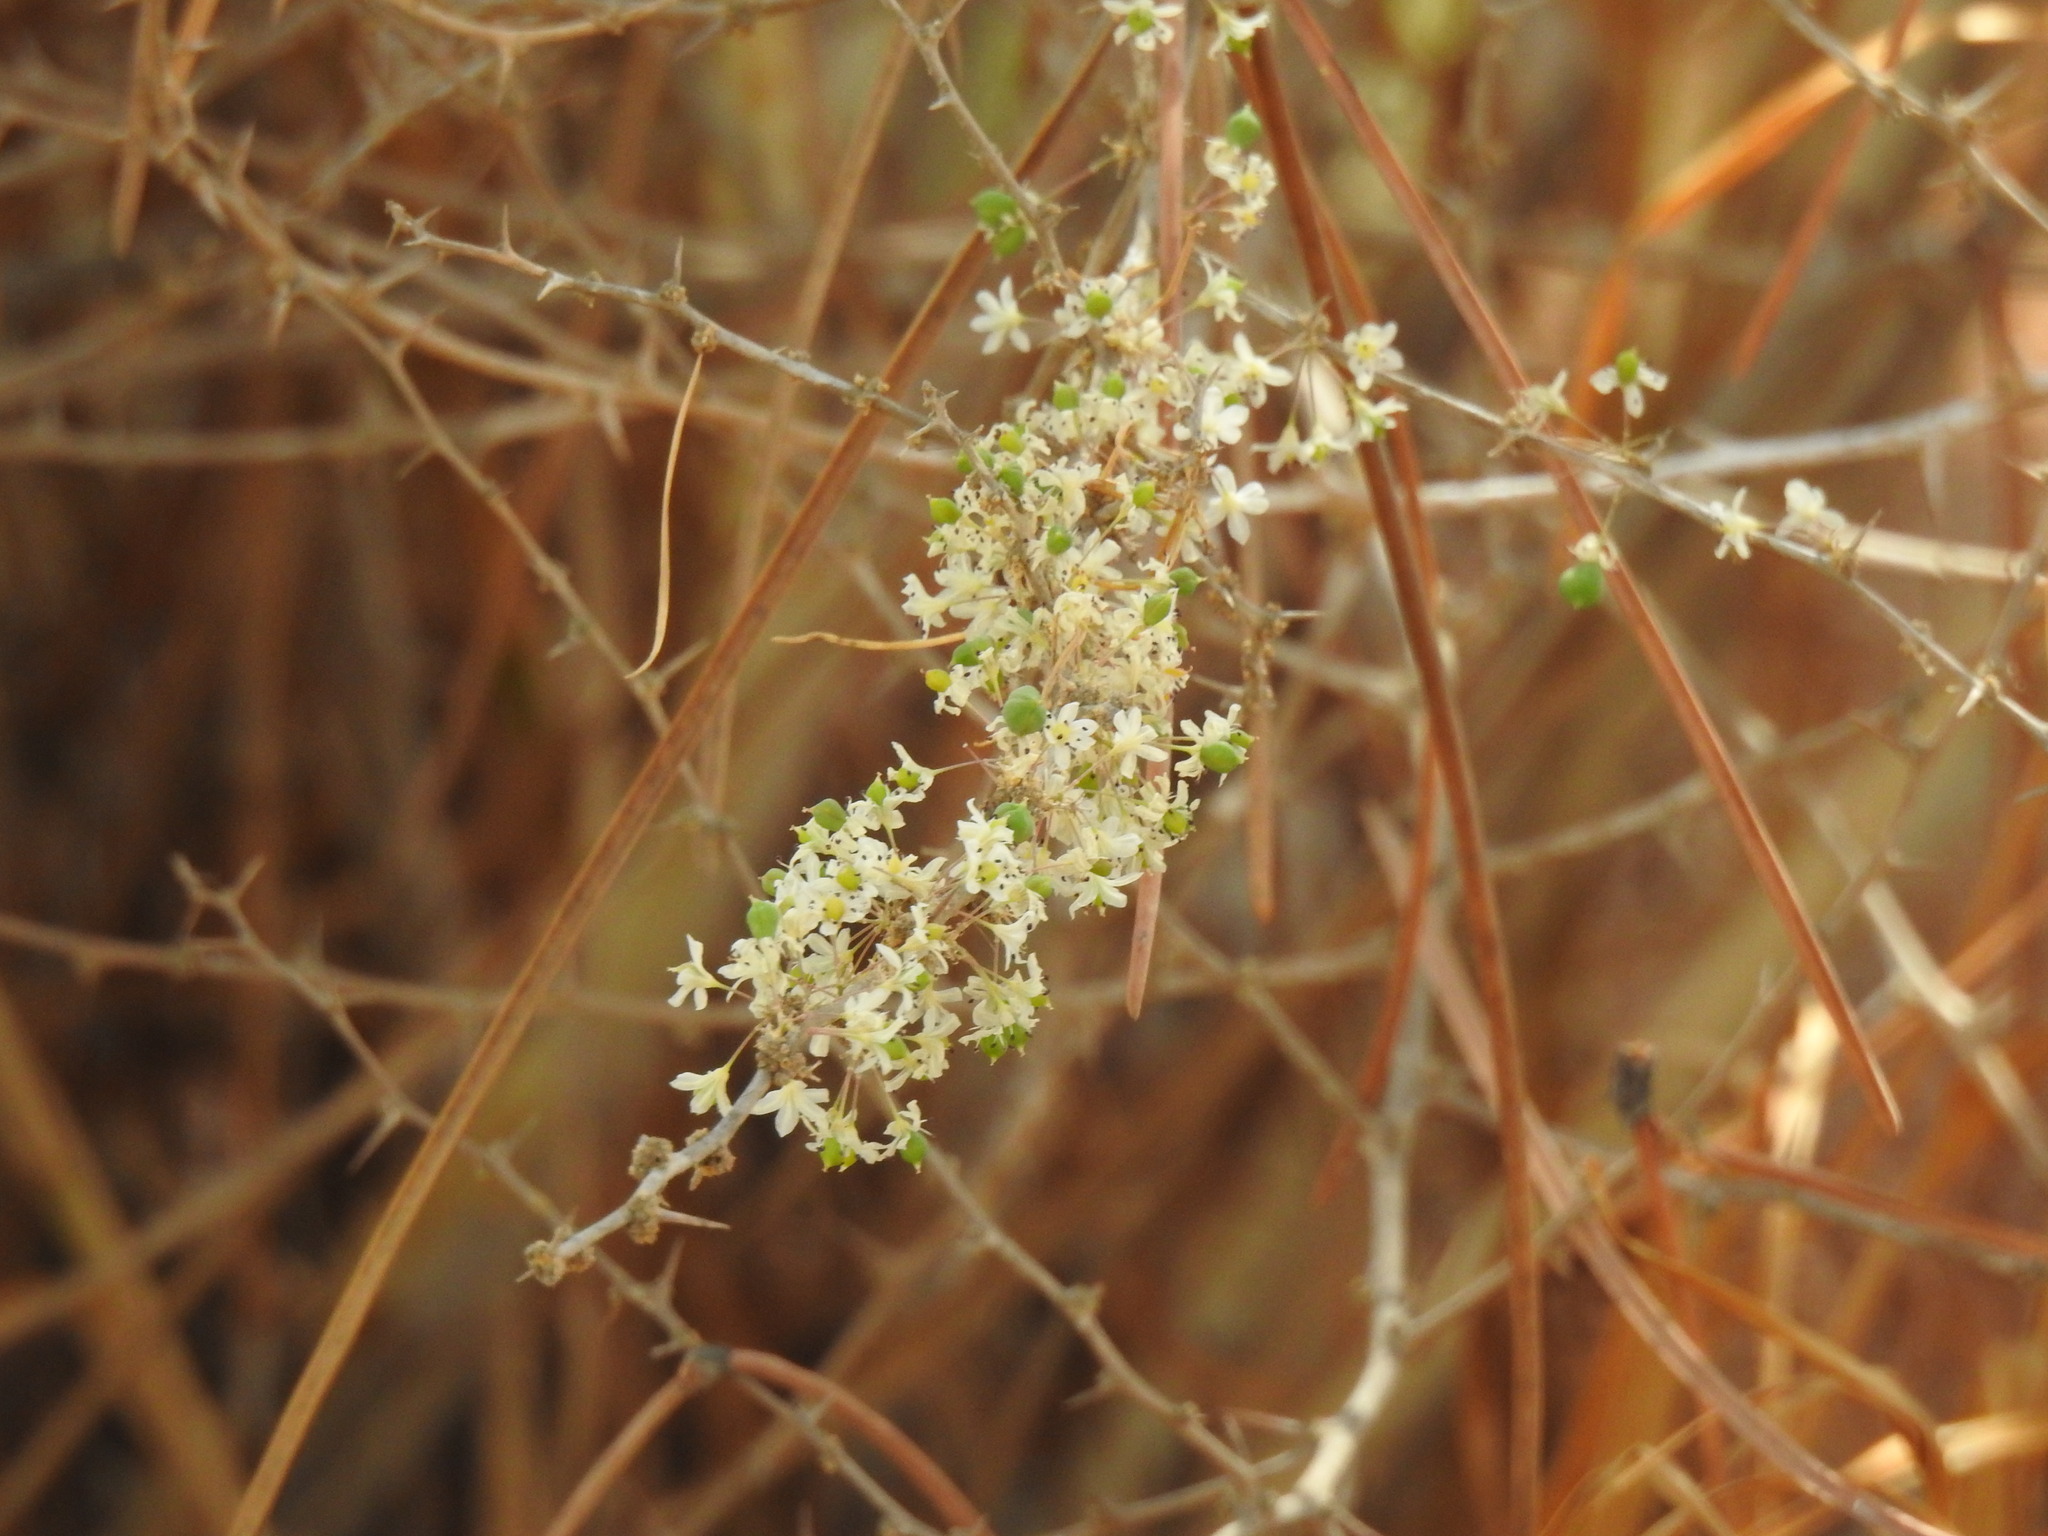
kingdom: Plantae
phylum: Tracheophyta
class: Liliopsida
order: Asparagales
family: Asparagaceae
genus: Asparagus
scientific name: Asparagus albus
